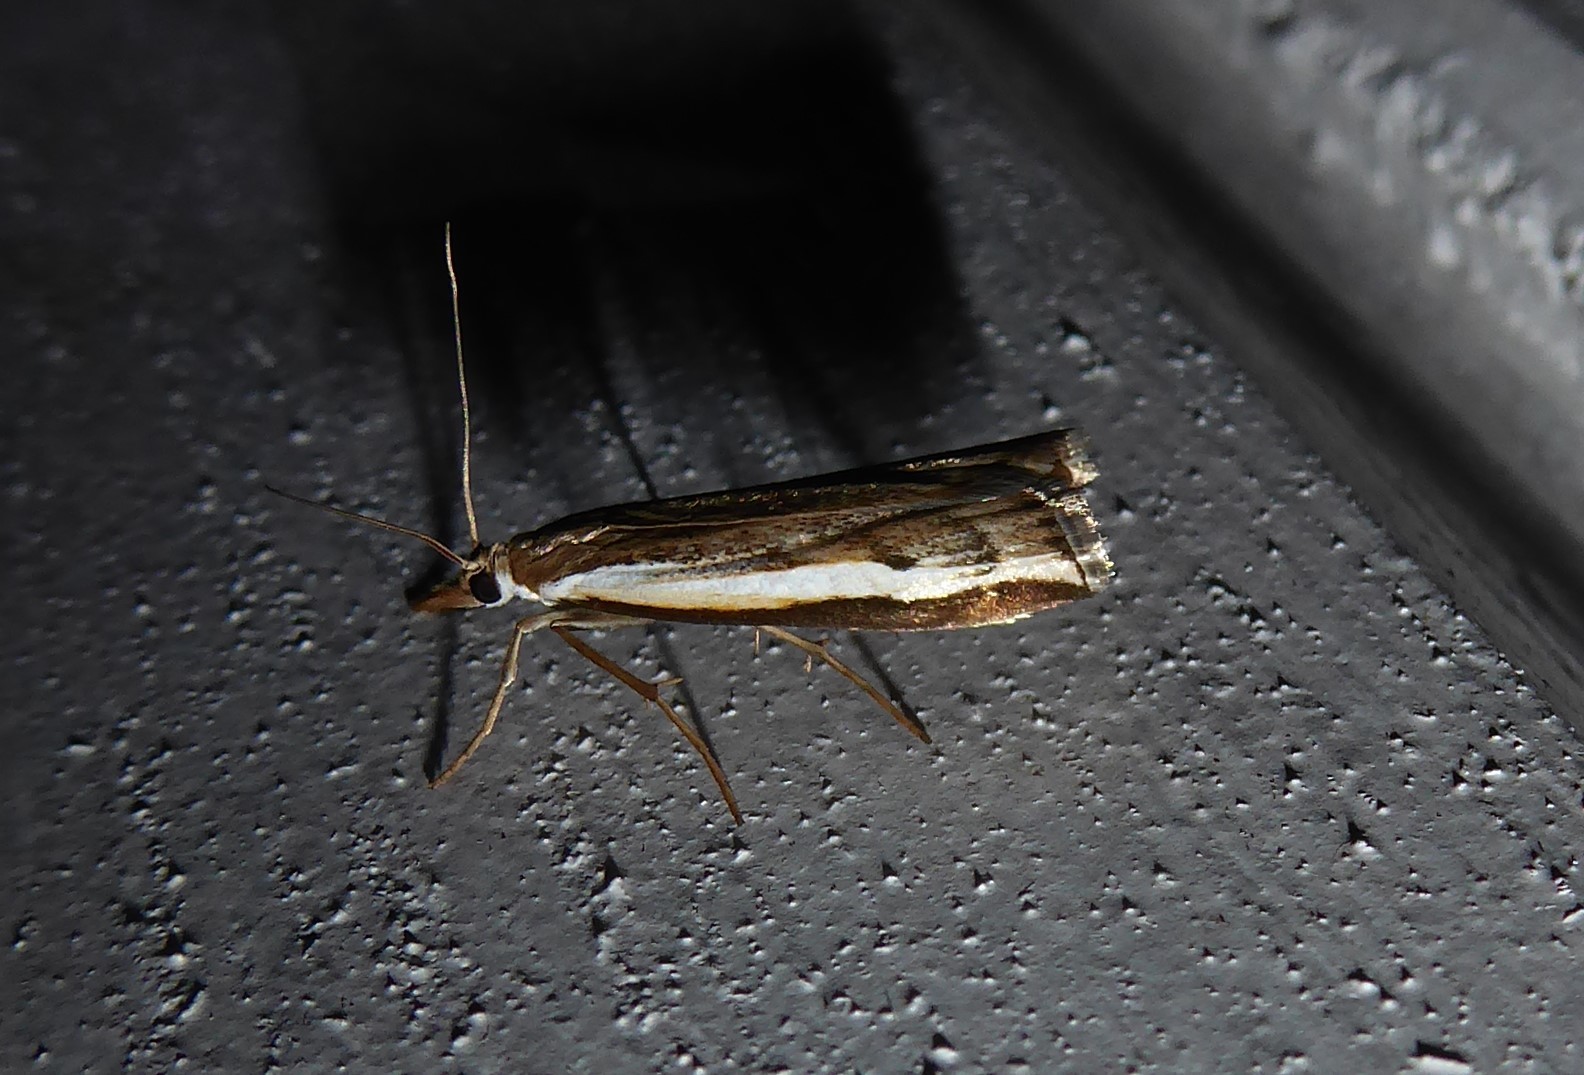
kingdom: Animalia
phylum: Arthropoda
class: Insecta
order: Lepidoptera
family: Crambidae
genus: Orocrambus
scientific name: Orocrambus flexuosellus
